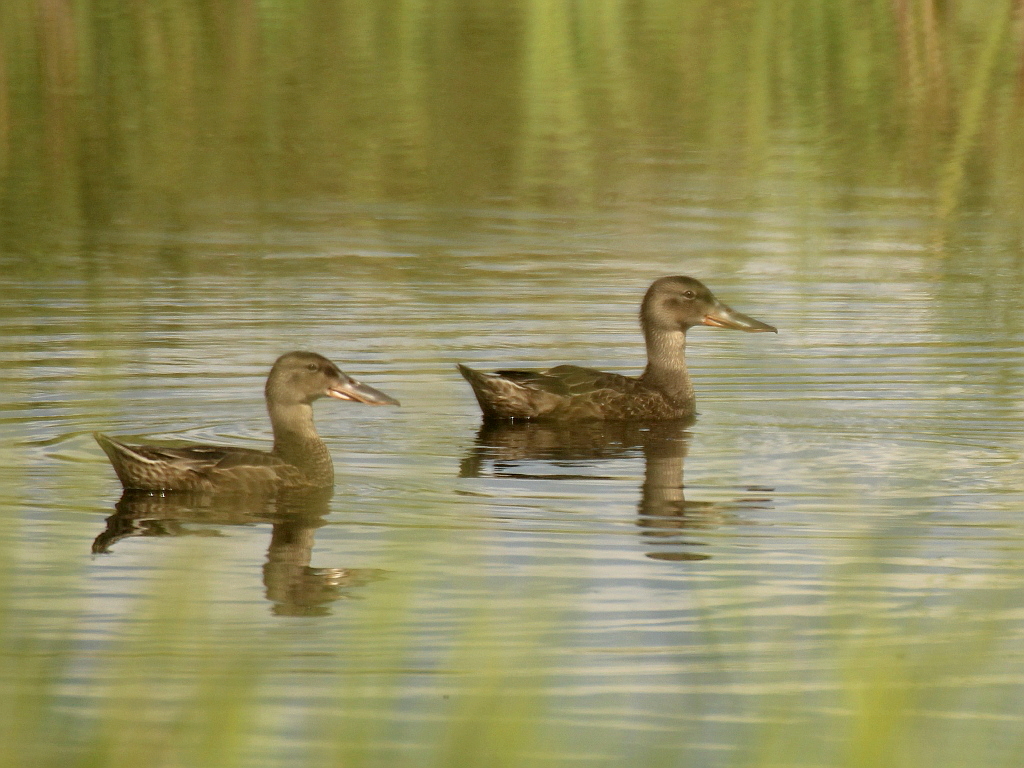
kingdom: Animalia
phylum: Chordata
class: Aves
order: Anseriformes
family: Anatidae
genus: Spatula
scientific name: Spatula clypeata
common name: Northern shoveler
